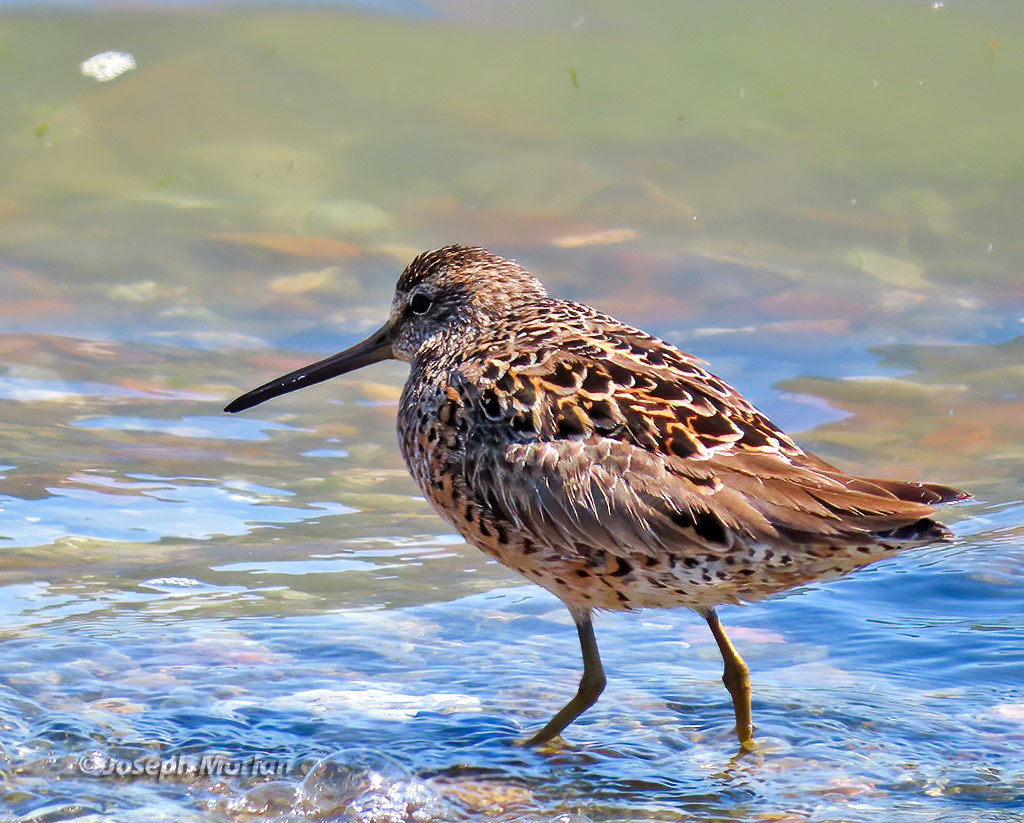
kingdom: Animalia
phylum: Chordata
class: Aves
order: Charadriiformes
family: Scolopacidae
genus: Limnodromus
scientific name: Limnodromus griseus
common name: Short-billed dowitcher
